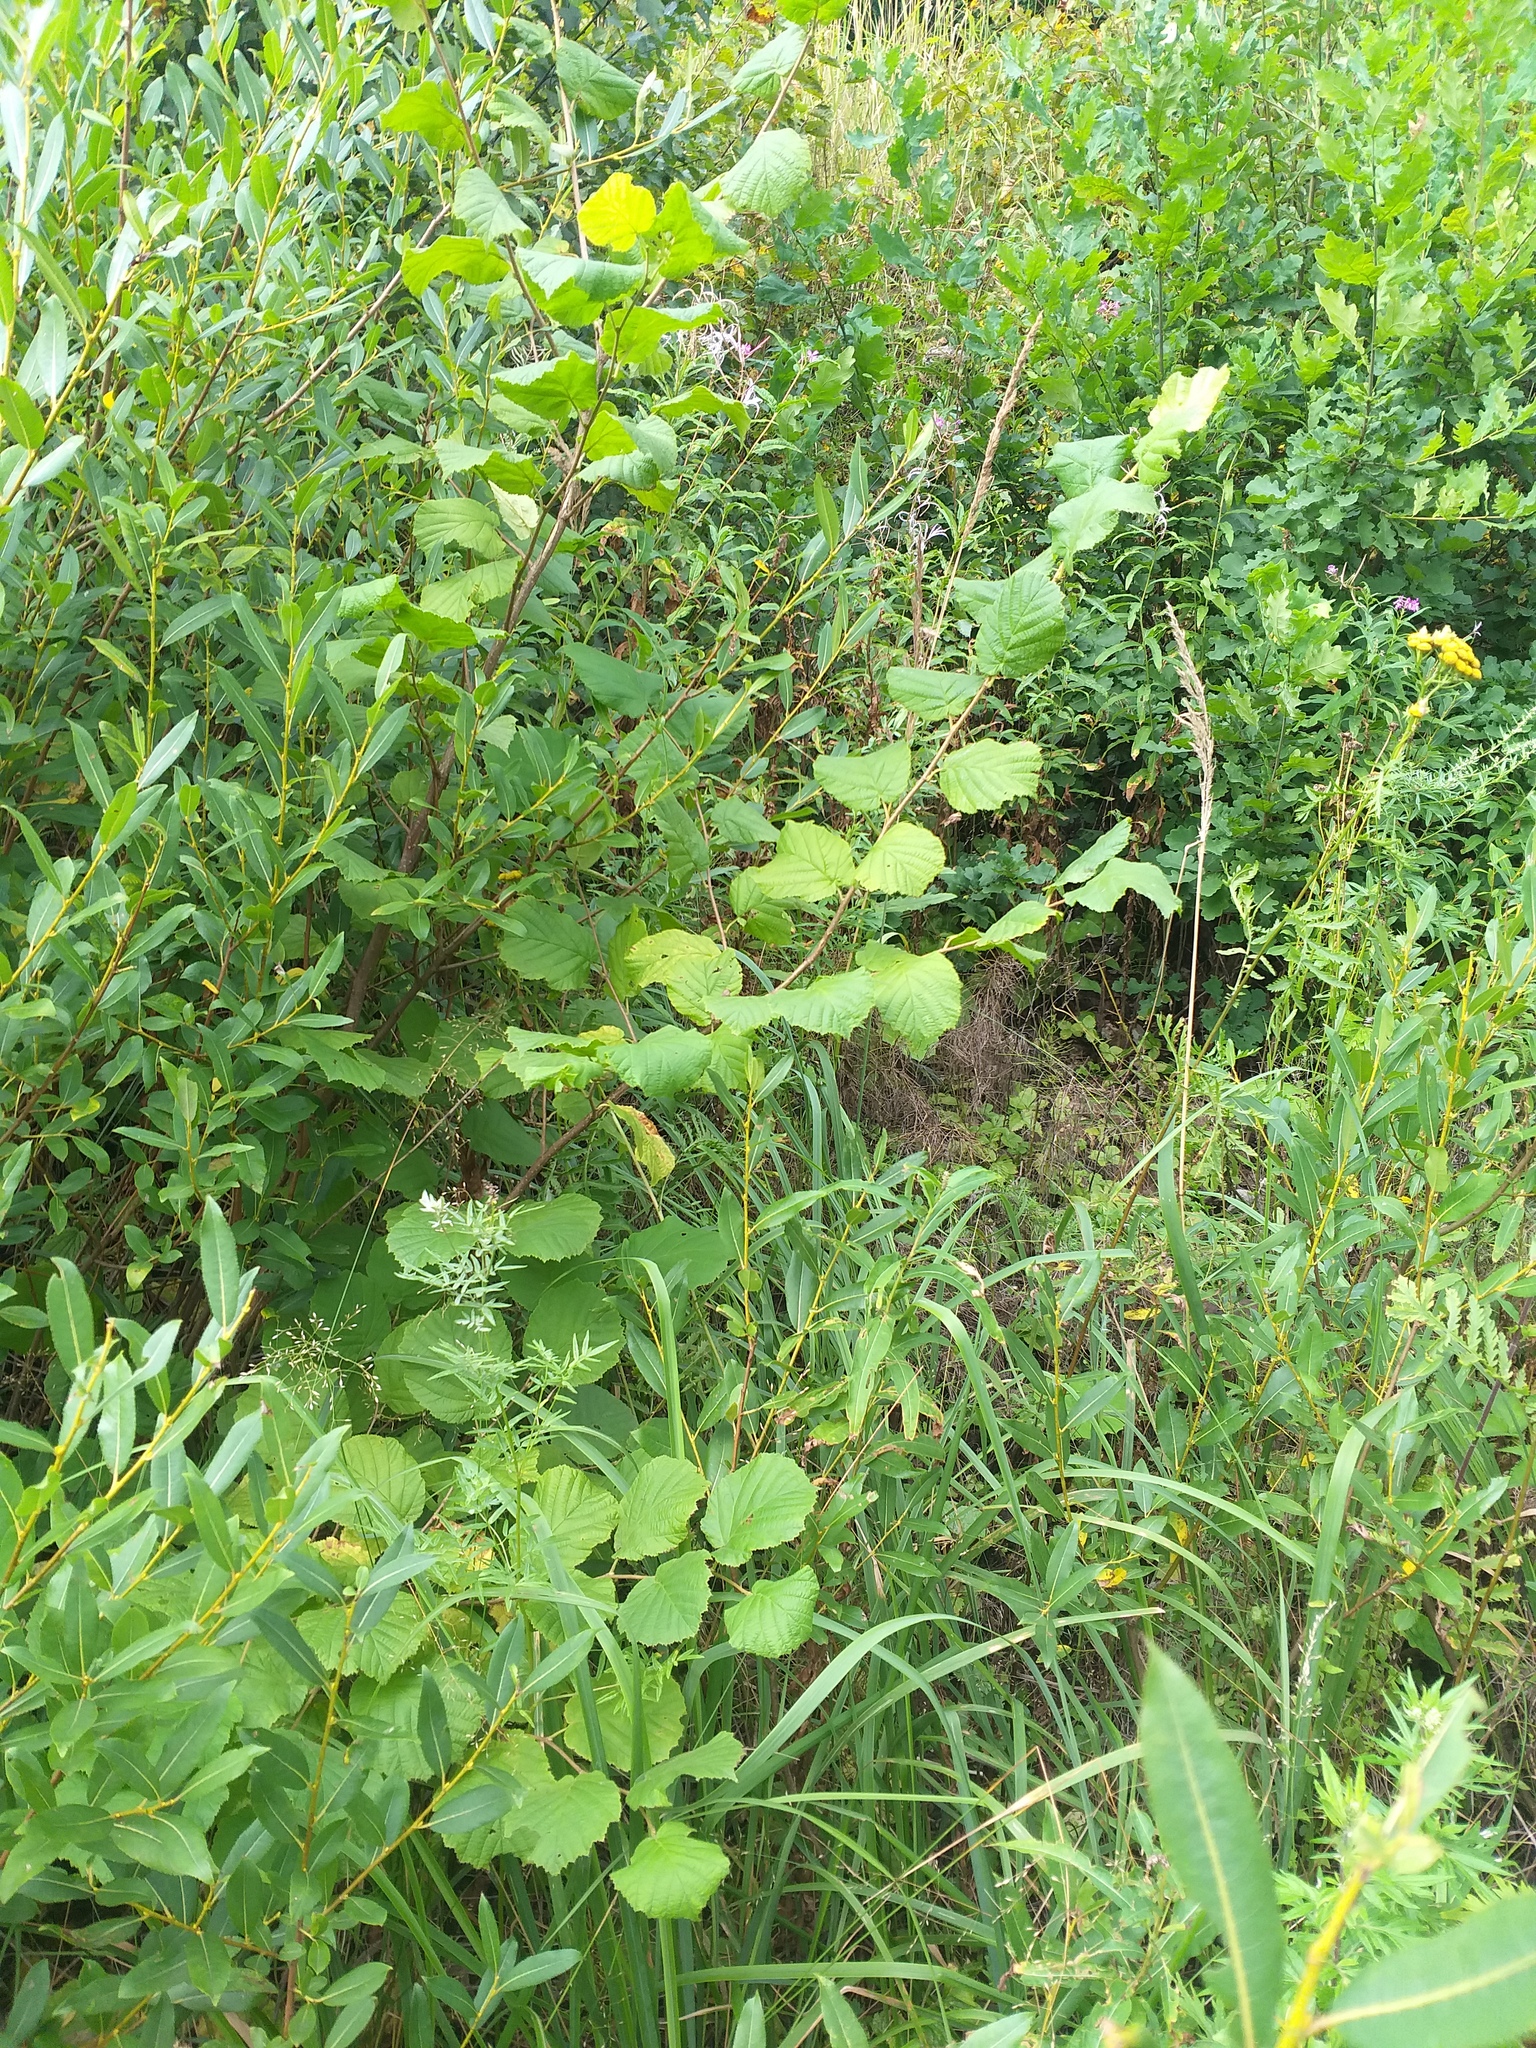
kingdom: Plantae
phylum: Tracheophyta
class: Magnoliopsida
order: Fagales
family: Betulaceae
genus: Corylus
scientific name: Corylus avellana
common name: European hazel
